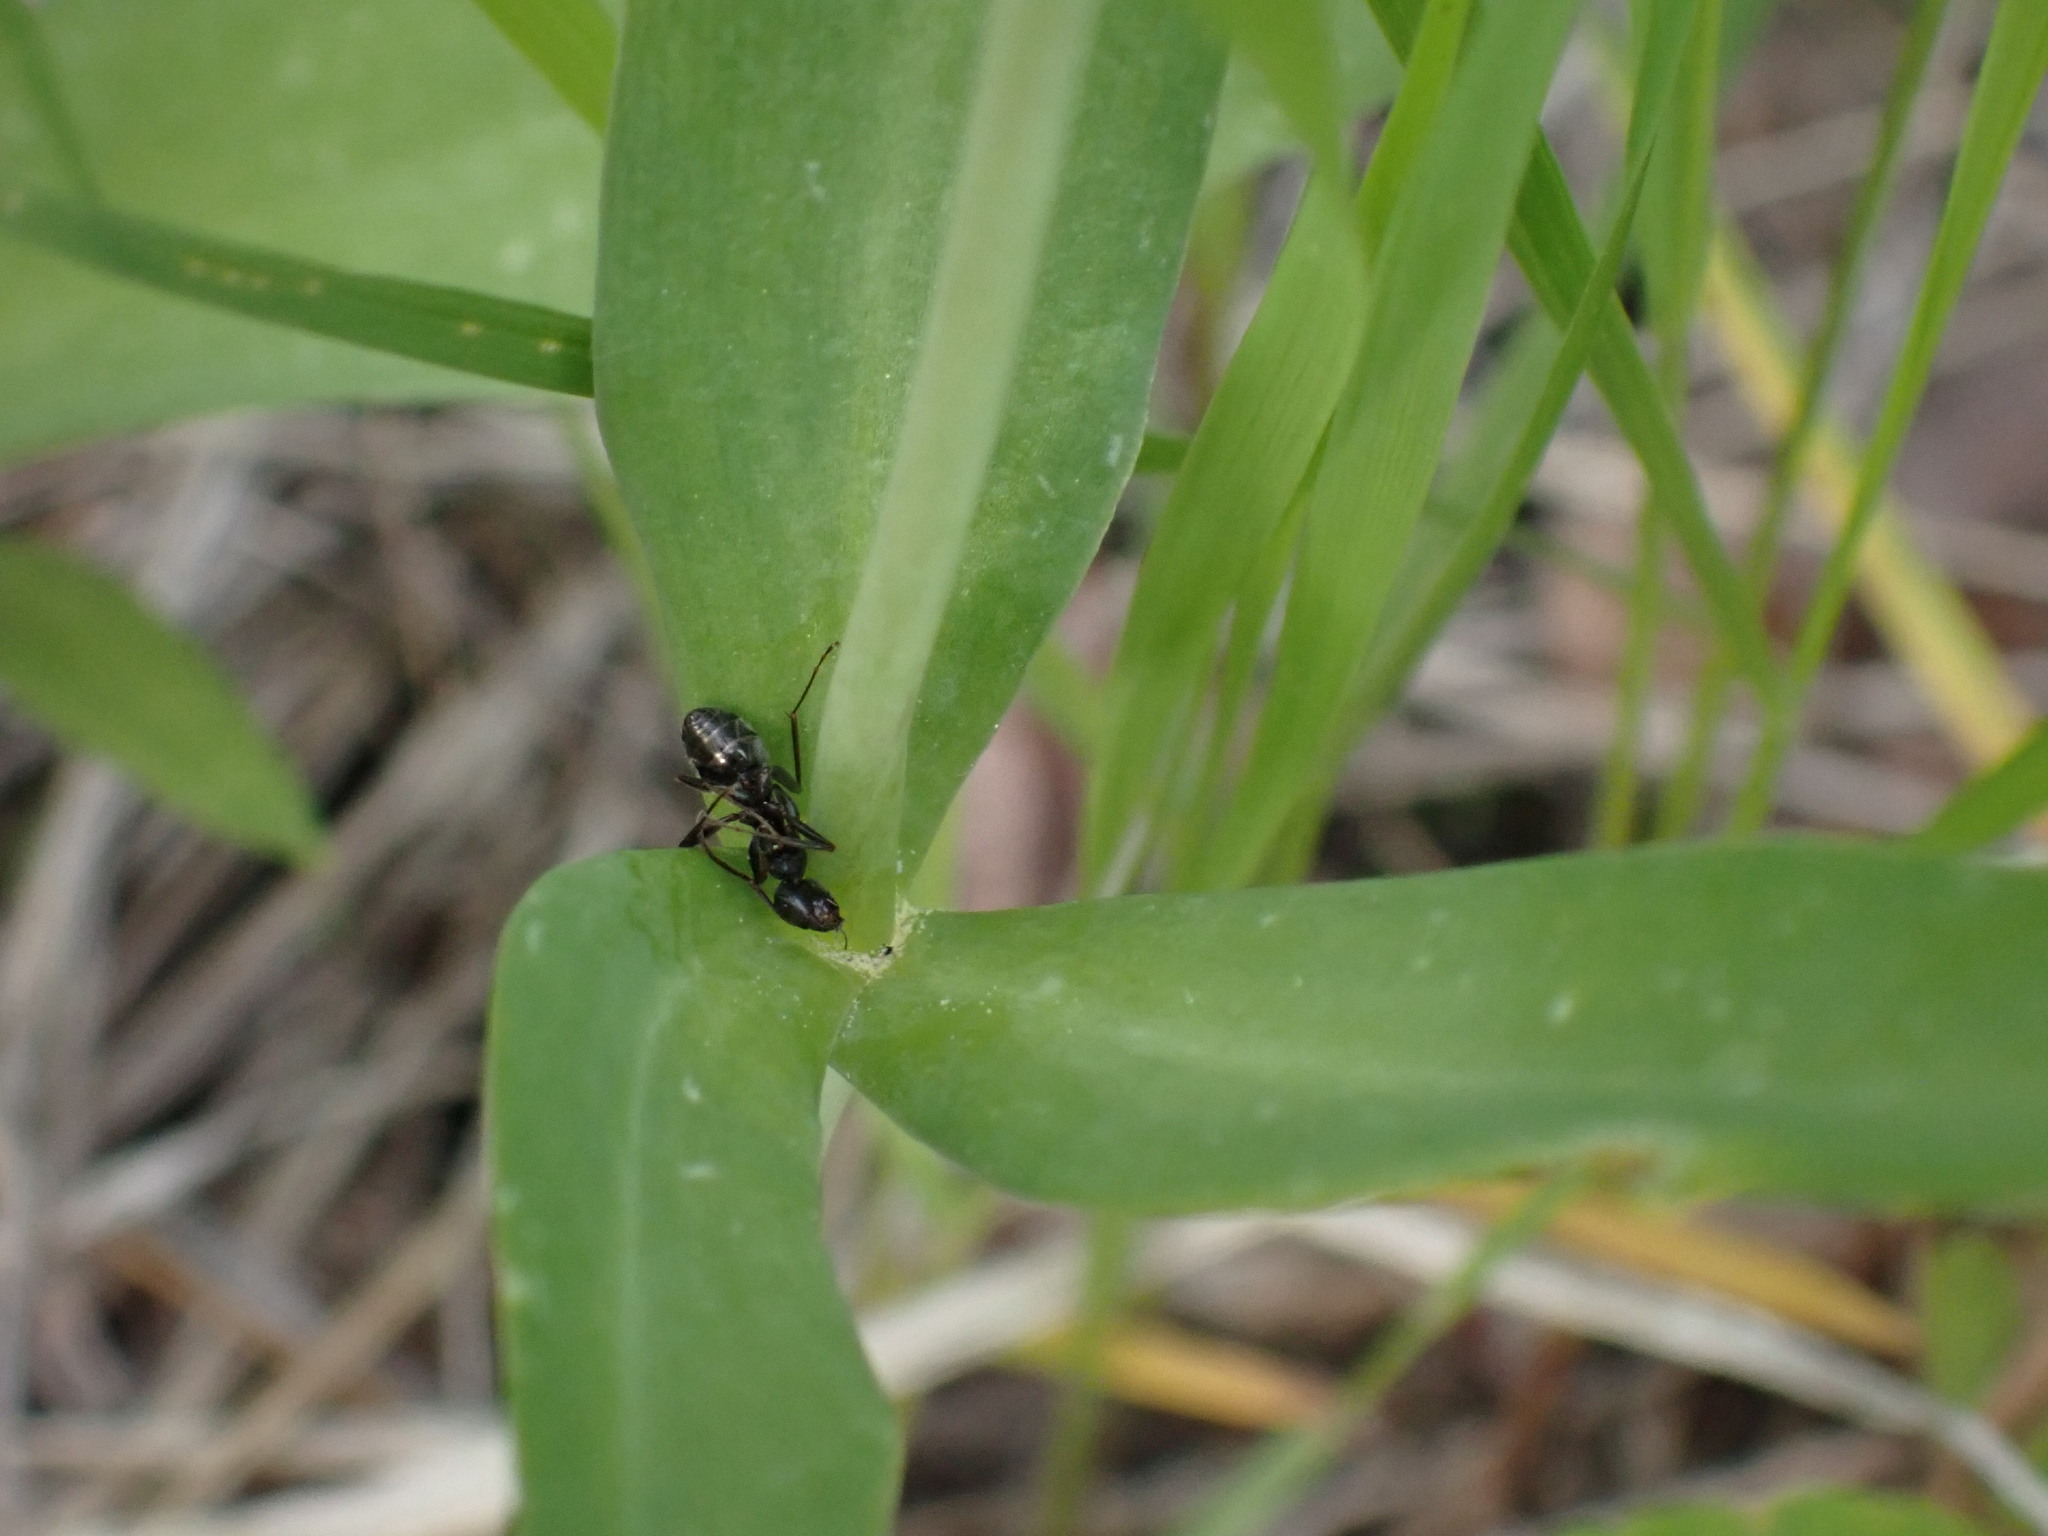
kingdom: Plantae
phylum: Tracheophyta
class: Liliopsida
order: Liliales
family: Liliaceae
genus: Fritillaria
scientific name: Fritillaria affinis
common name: Ojai fritillary
